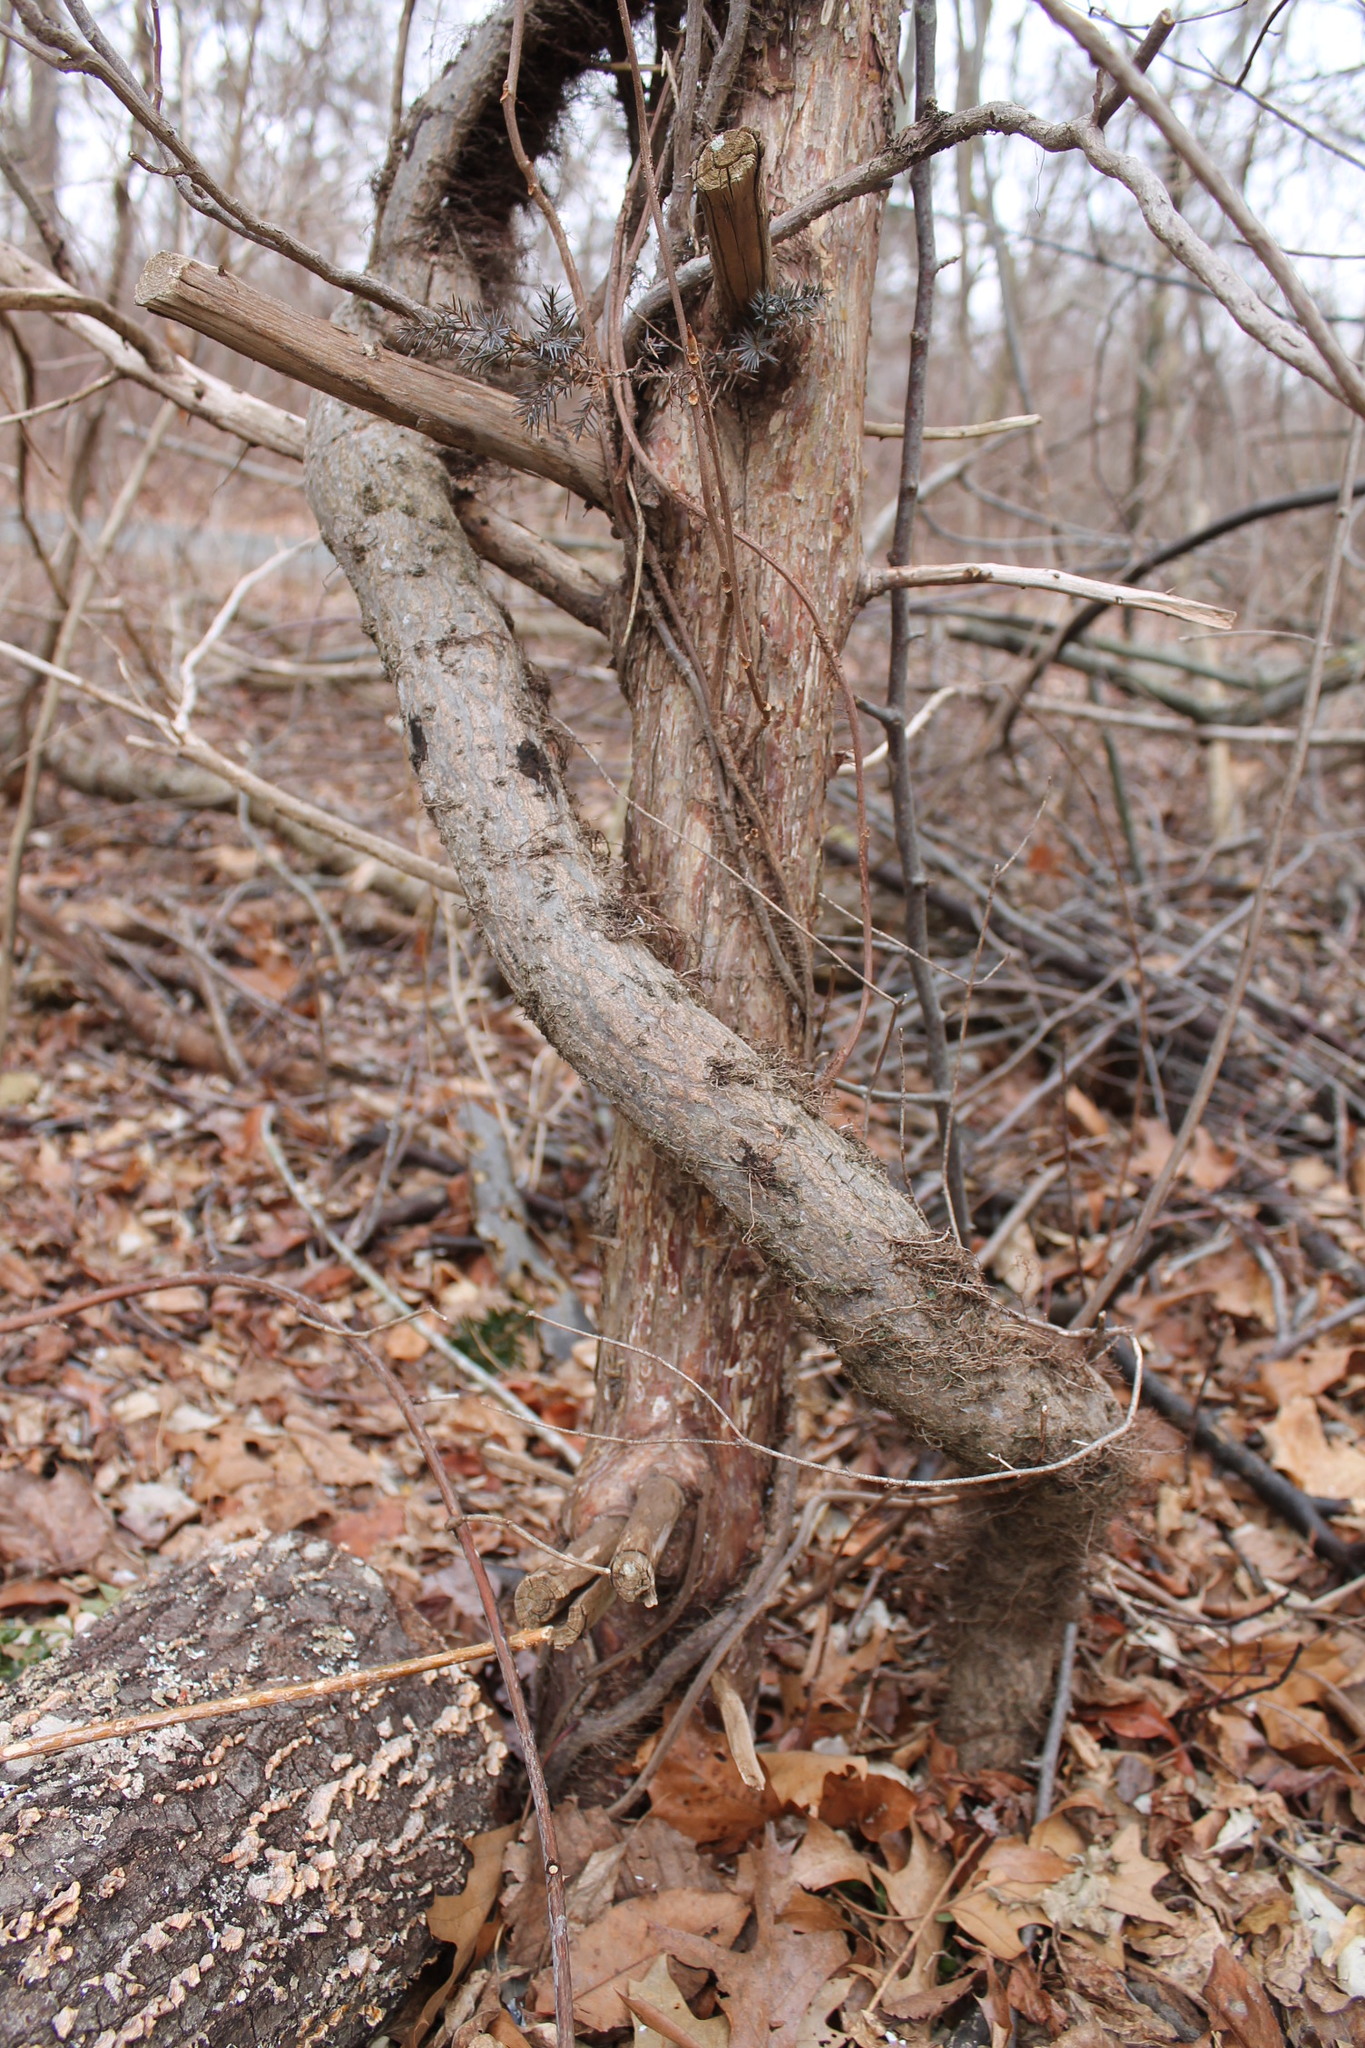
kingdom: Plantae
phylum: Tracheophyta
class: Magnoliopsida
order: Sapindales
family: Anacardiaceae
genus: Toxicodendron
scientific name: Toxicodendron radicans
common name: Poison ivy
